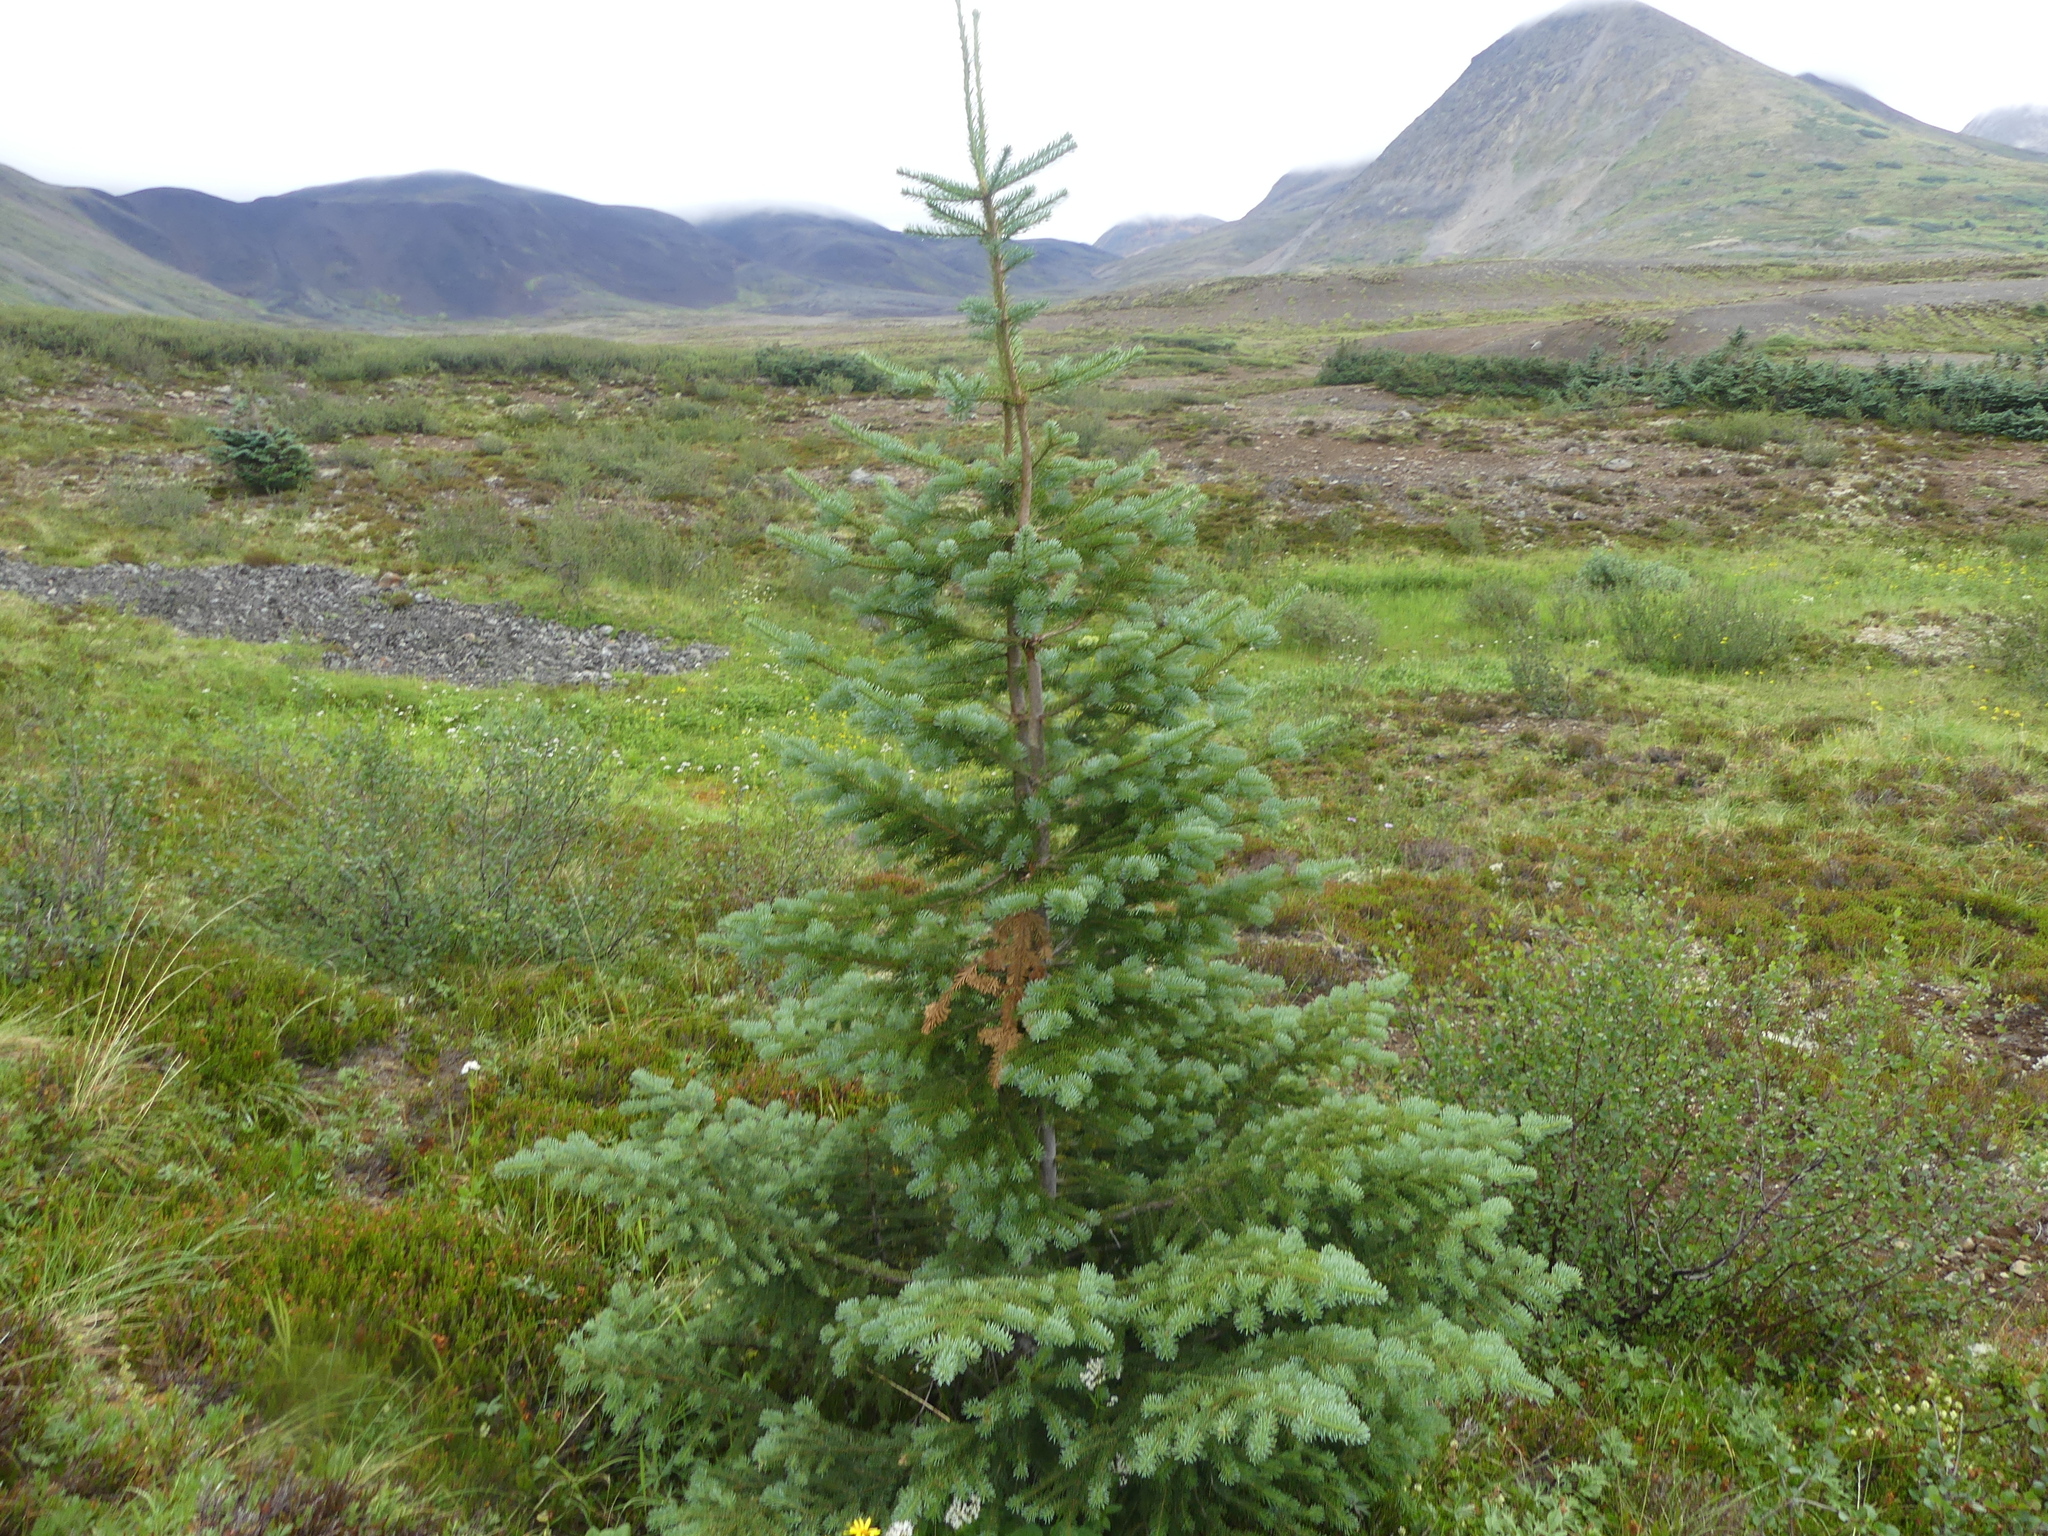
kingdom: Plantae
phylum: Tracheophyta
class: Pinopsida
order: Pinales
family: Pinaceae
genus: Abies
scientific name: Abies lasiocarpa
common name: Subalpine fir
